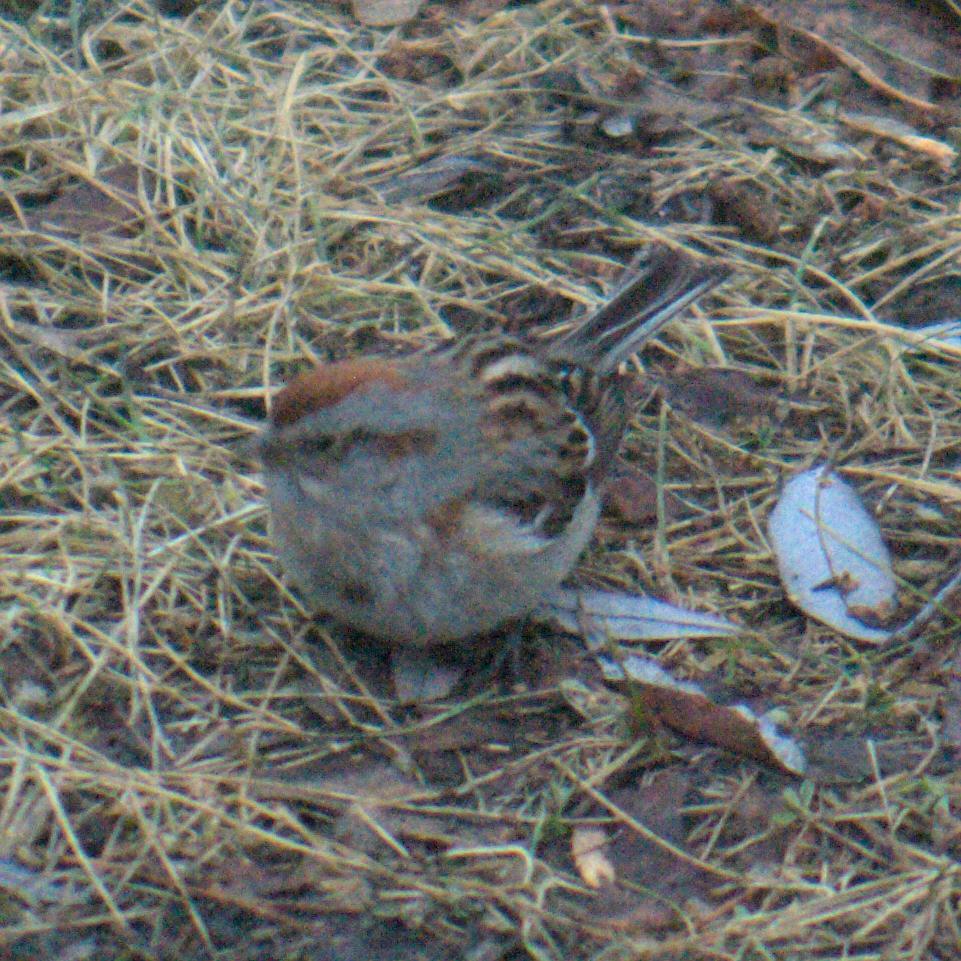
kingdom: Animalia
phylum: Chordata
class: Aves
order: Passeriformes
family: Passerellidae
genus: Spizelloides
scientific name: Spizelloides arborea
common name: American tree sparrow
